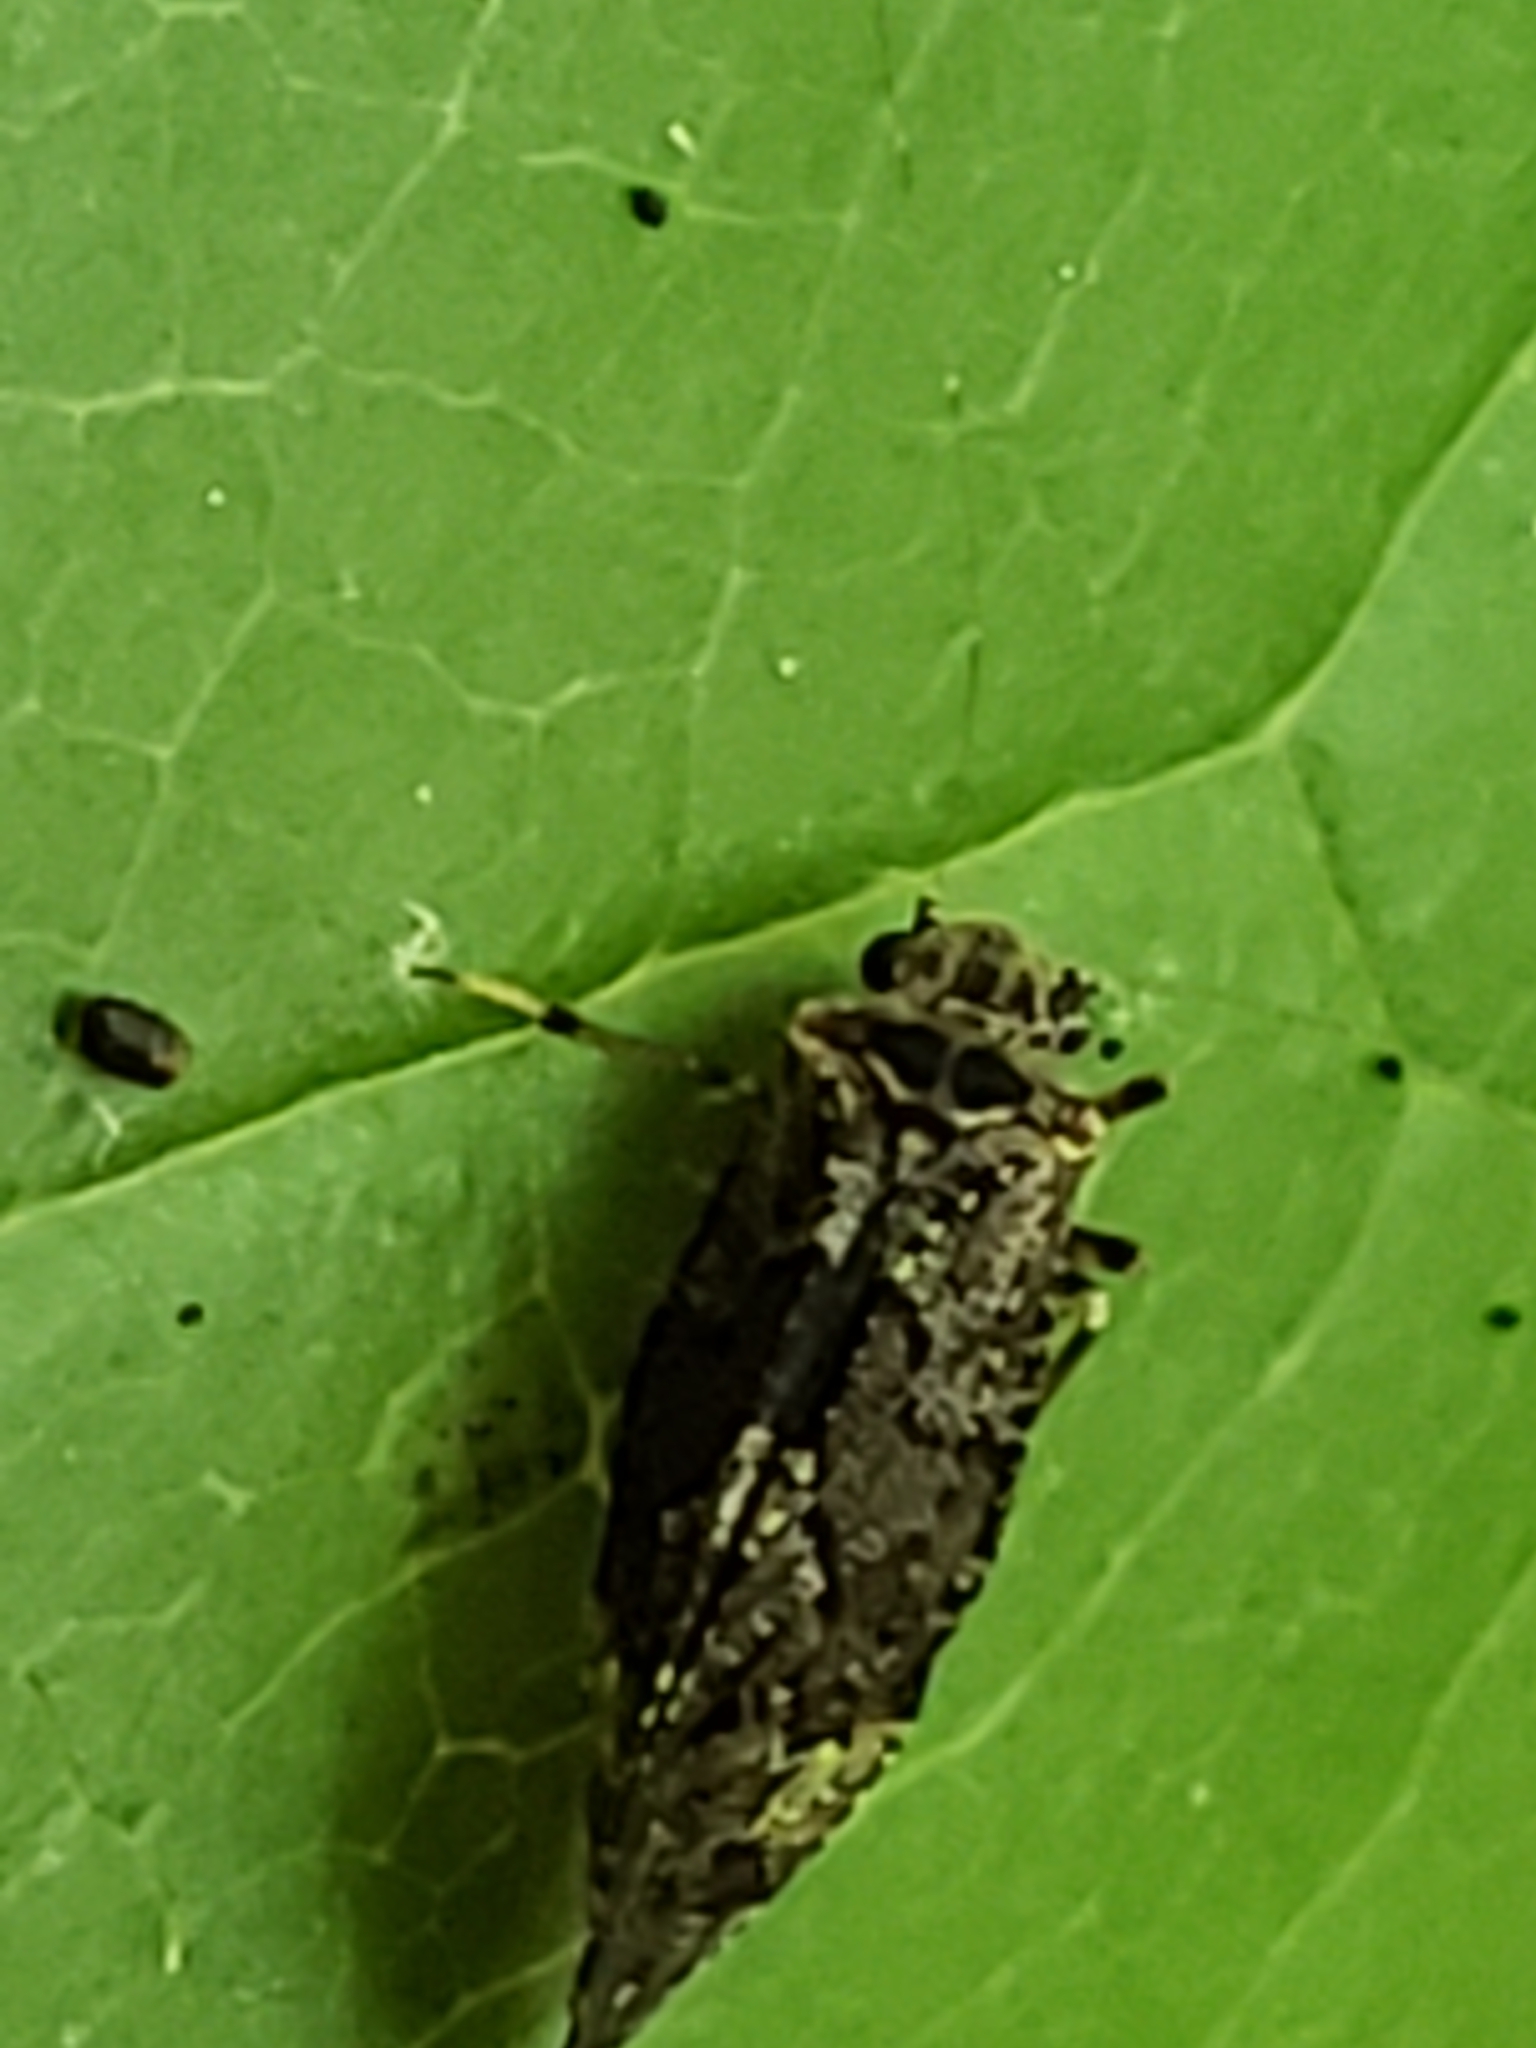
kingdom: Animalia
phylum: Arthropoda
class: Insecta
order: Psocodea
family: Myopsocidae
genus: Lichenomima
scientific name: Lichenomima lugens
